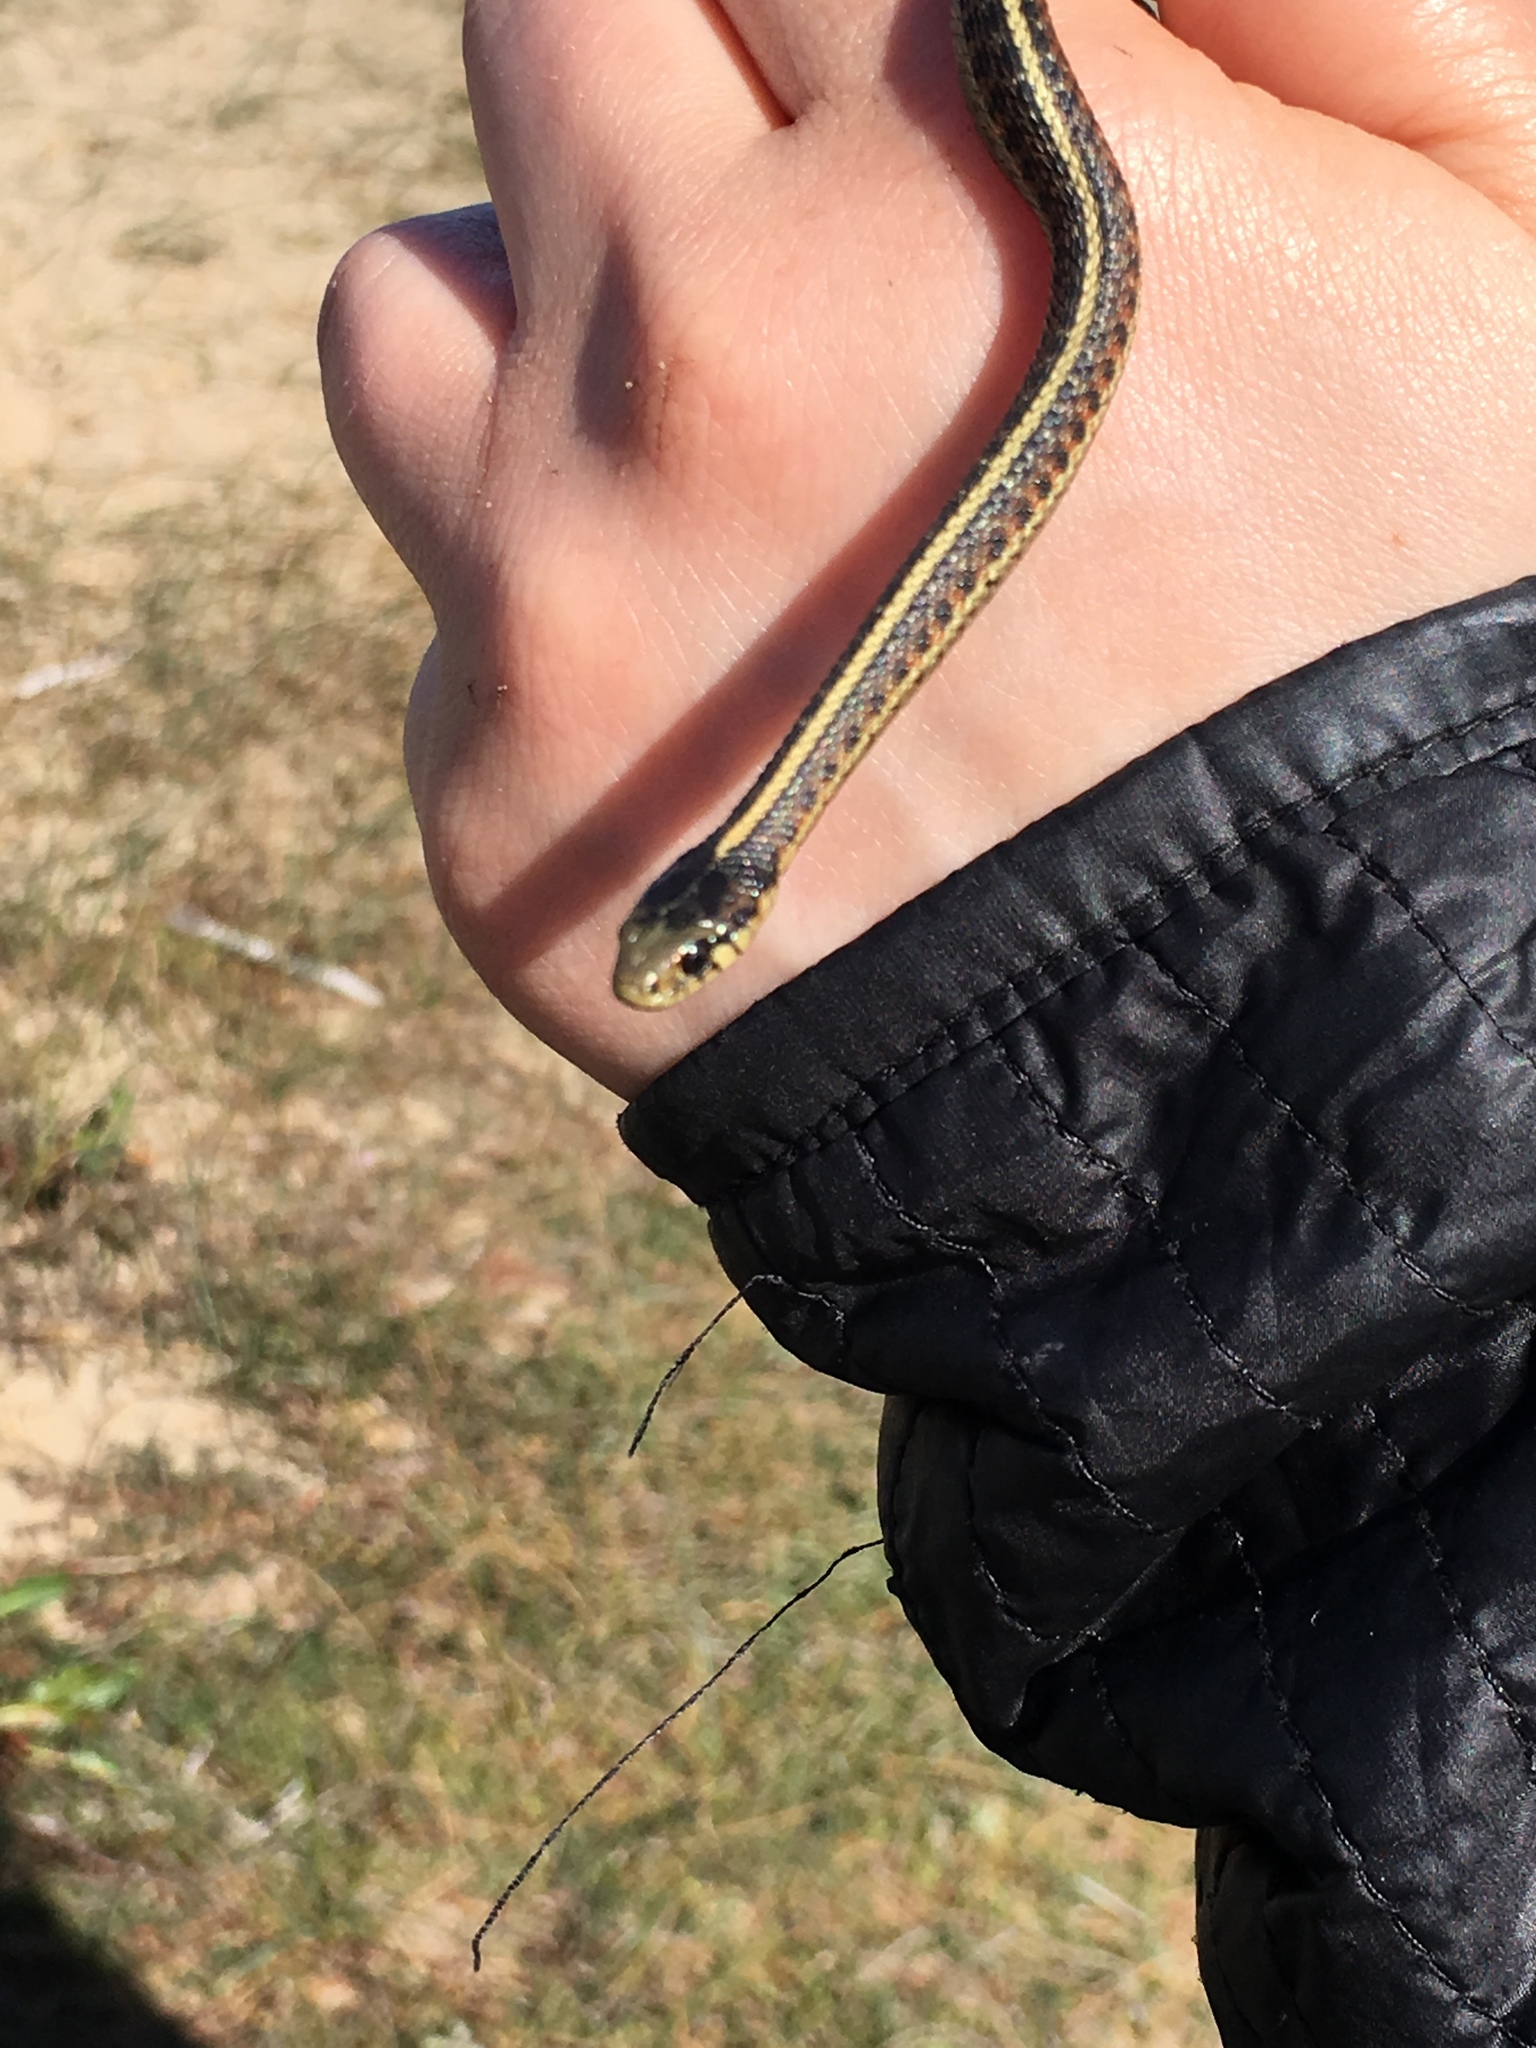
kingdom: Animalia
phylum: Chordata
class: Squamata
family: Colubridae
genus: Thamnophis
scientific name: Thamnophis elegans
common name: Western terrestrial garter snake
